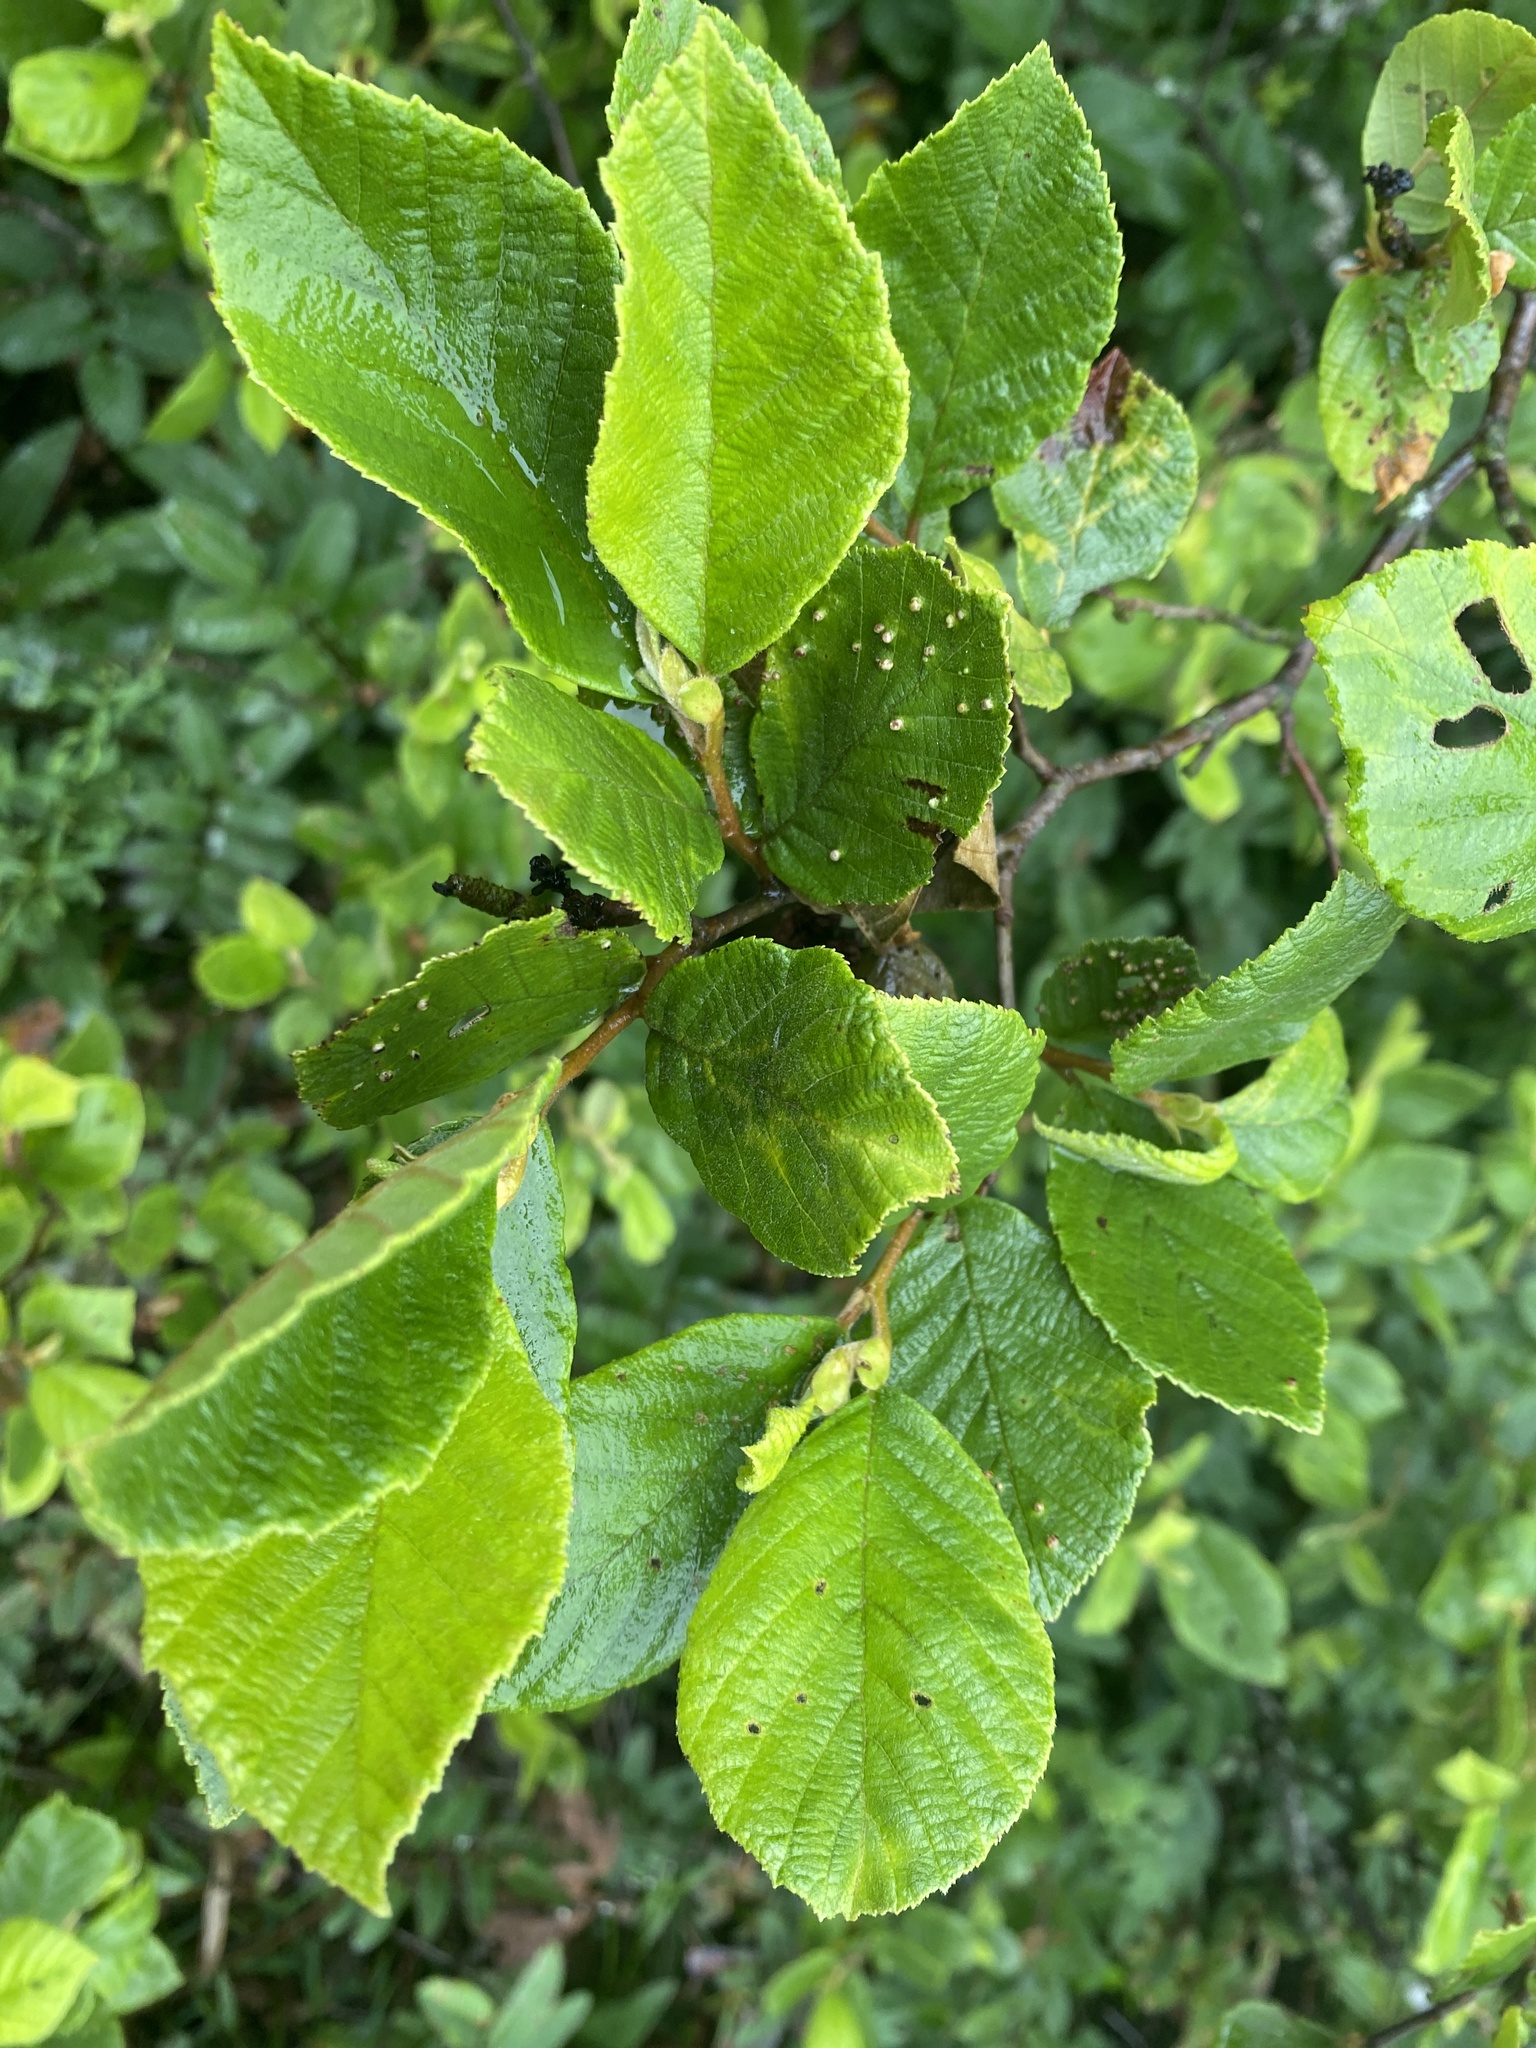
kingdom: Plantae
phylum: Tracheophyta
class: Magnoliopsida
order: Fagales
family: Betulaceae
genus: Alnus
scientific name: Alnus serrulata
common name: Hazel alder
